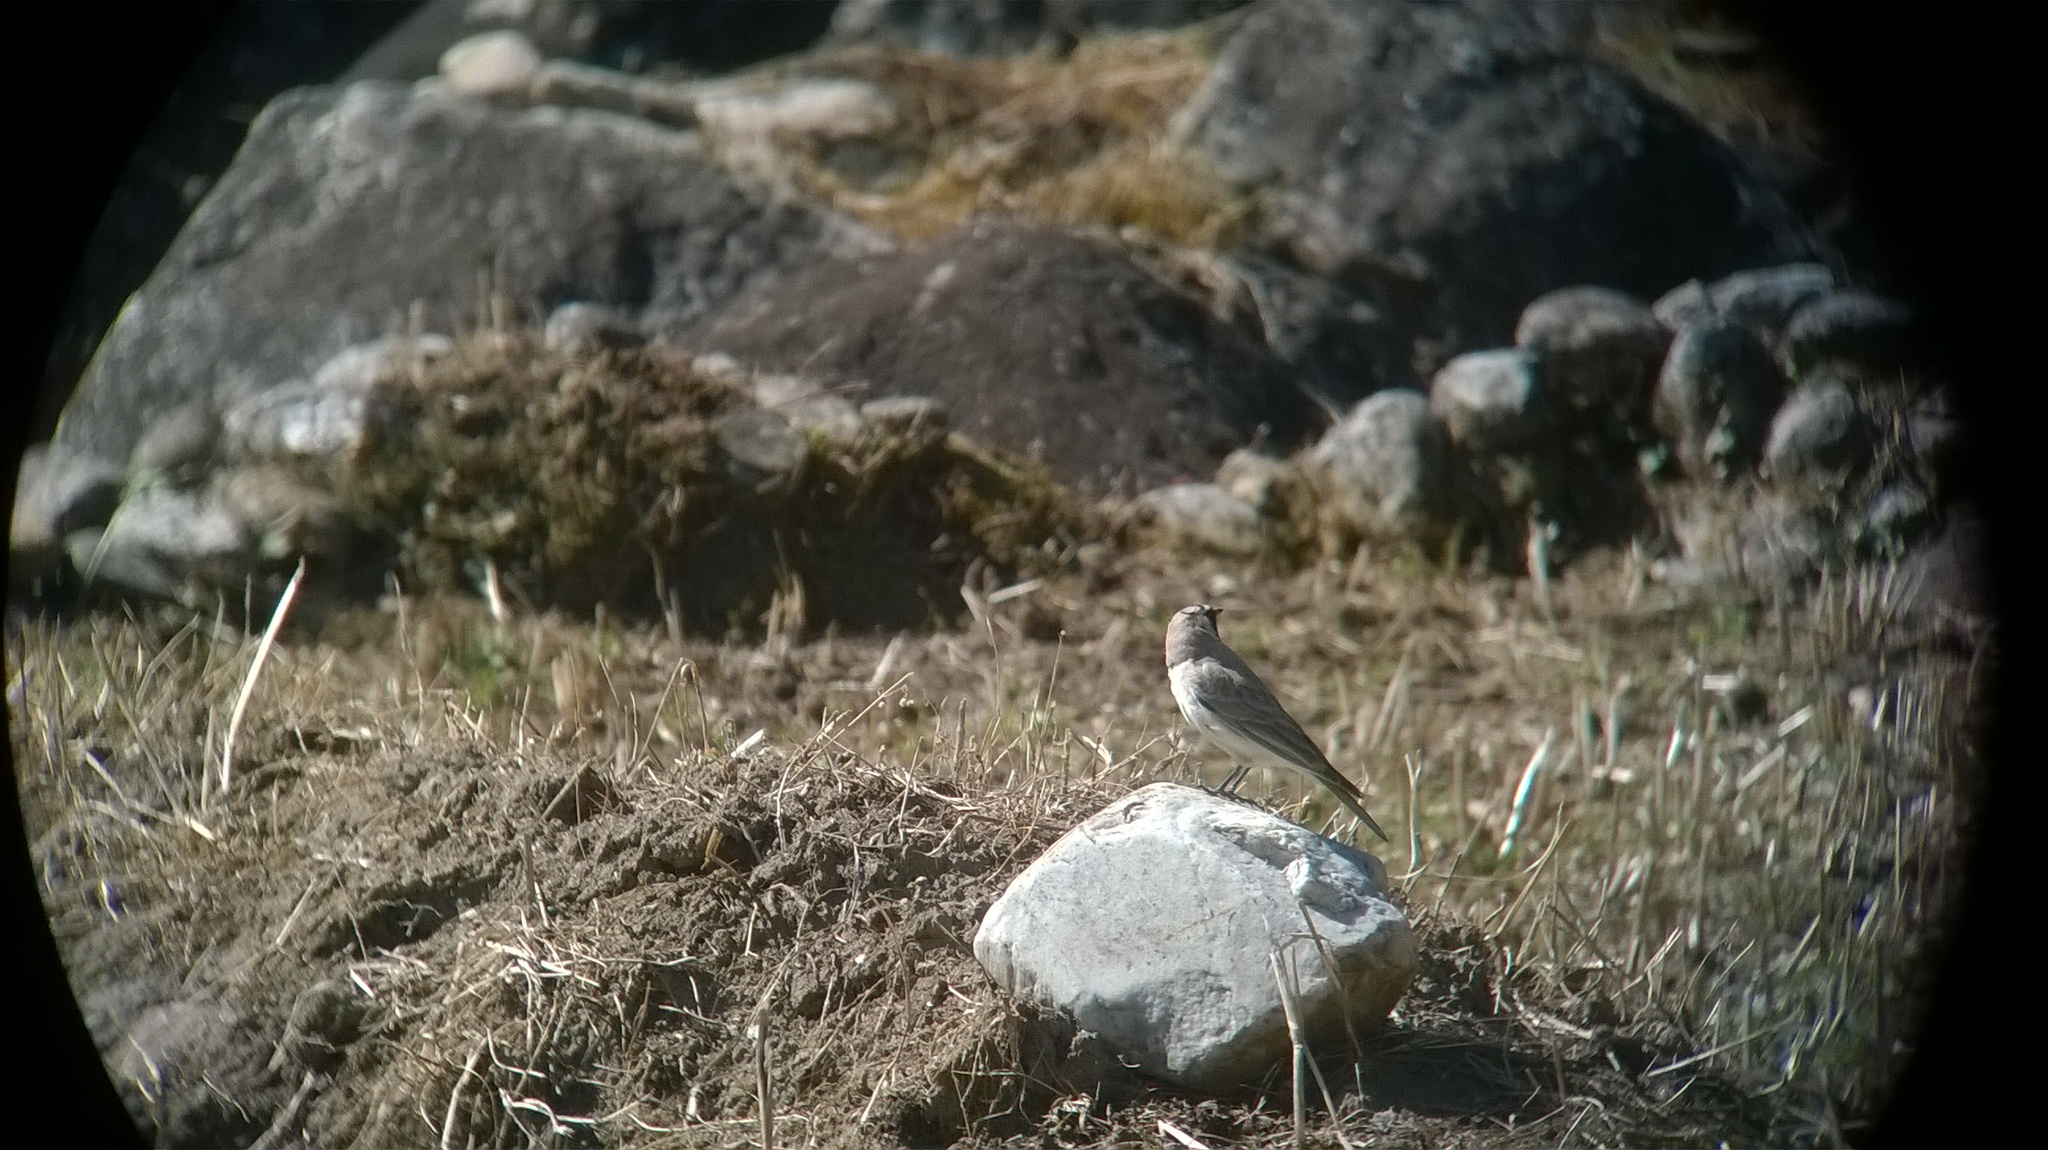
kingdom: Animalia
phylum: Chordata
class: Aves
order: Passeriformes
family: Alaudidae
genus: Eremophila
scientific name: Eremophila alpestris
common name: Horned lark
